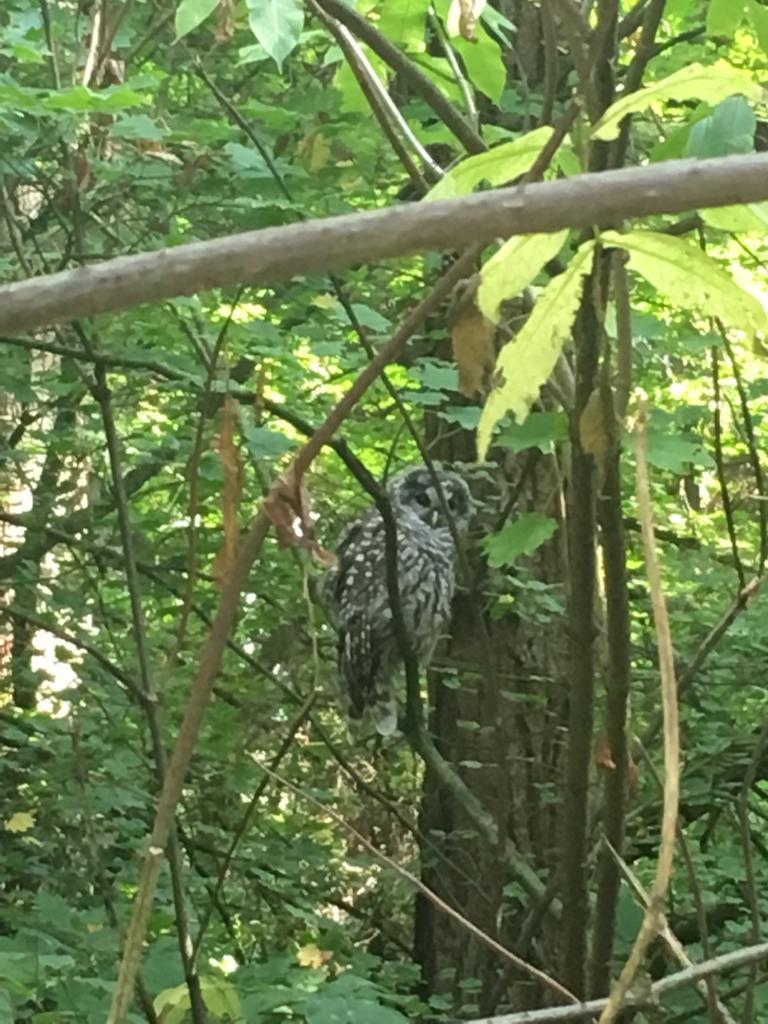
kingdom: Animalia
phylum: Chordata
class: Aves
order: Strigiformes
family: Strigidae
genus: Strix
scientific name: Strix varia
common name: Barred owl
